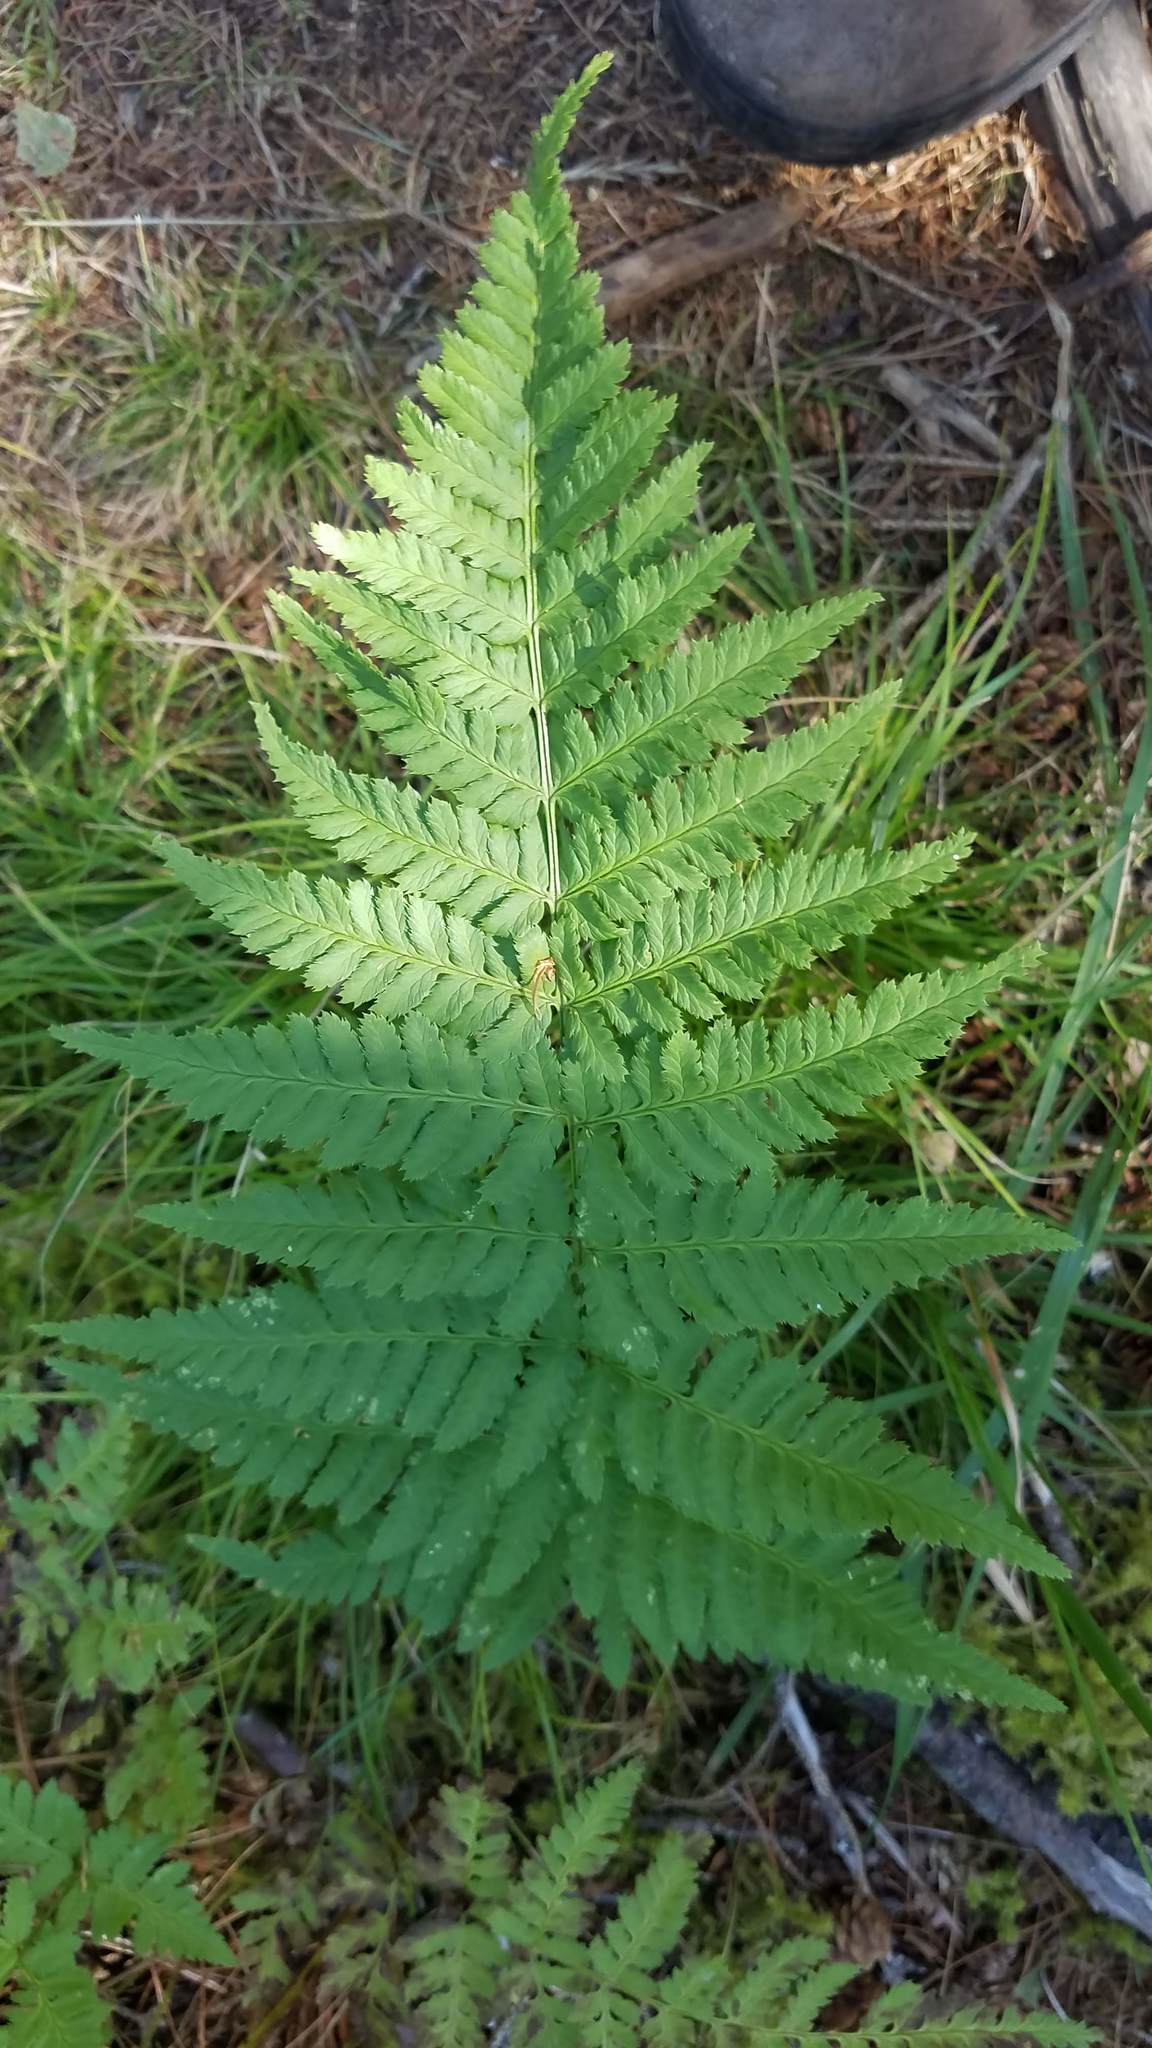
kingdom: Plantae
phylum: Tracheophyta
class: Polypodiopsida
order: Polypodiales
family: Dryopteridaceae
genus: Dryopteris
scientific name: Dryopteris carthusiana
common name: Narrow buckler-fern
